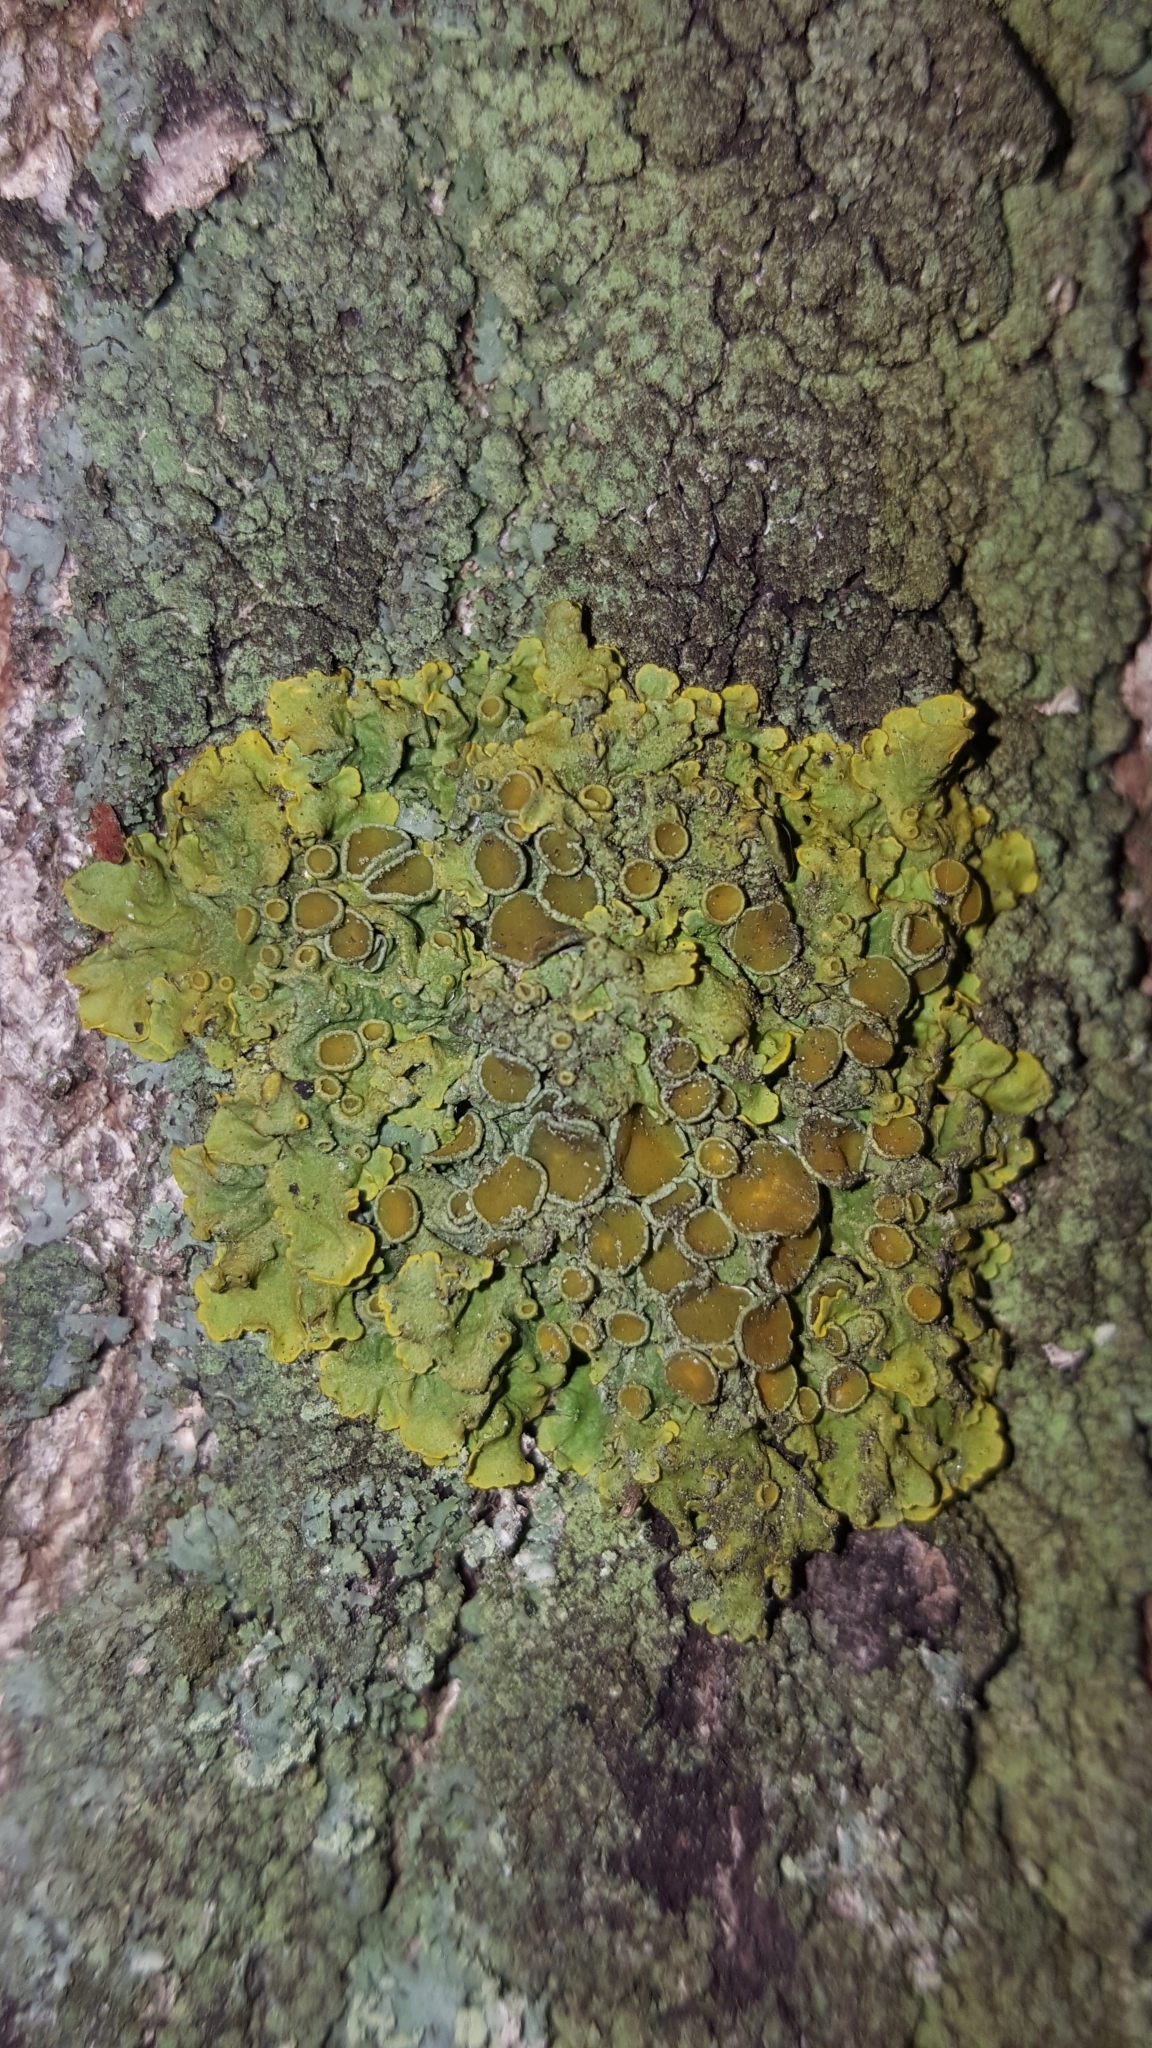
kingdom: Fungi
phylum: Ascomycota
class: Lecanoromycetes
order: Teloschistales
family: Teloschistaceae
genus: Xanthoria
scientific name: Xanthoria parietina
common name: Common orange lichen
